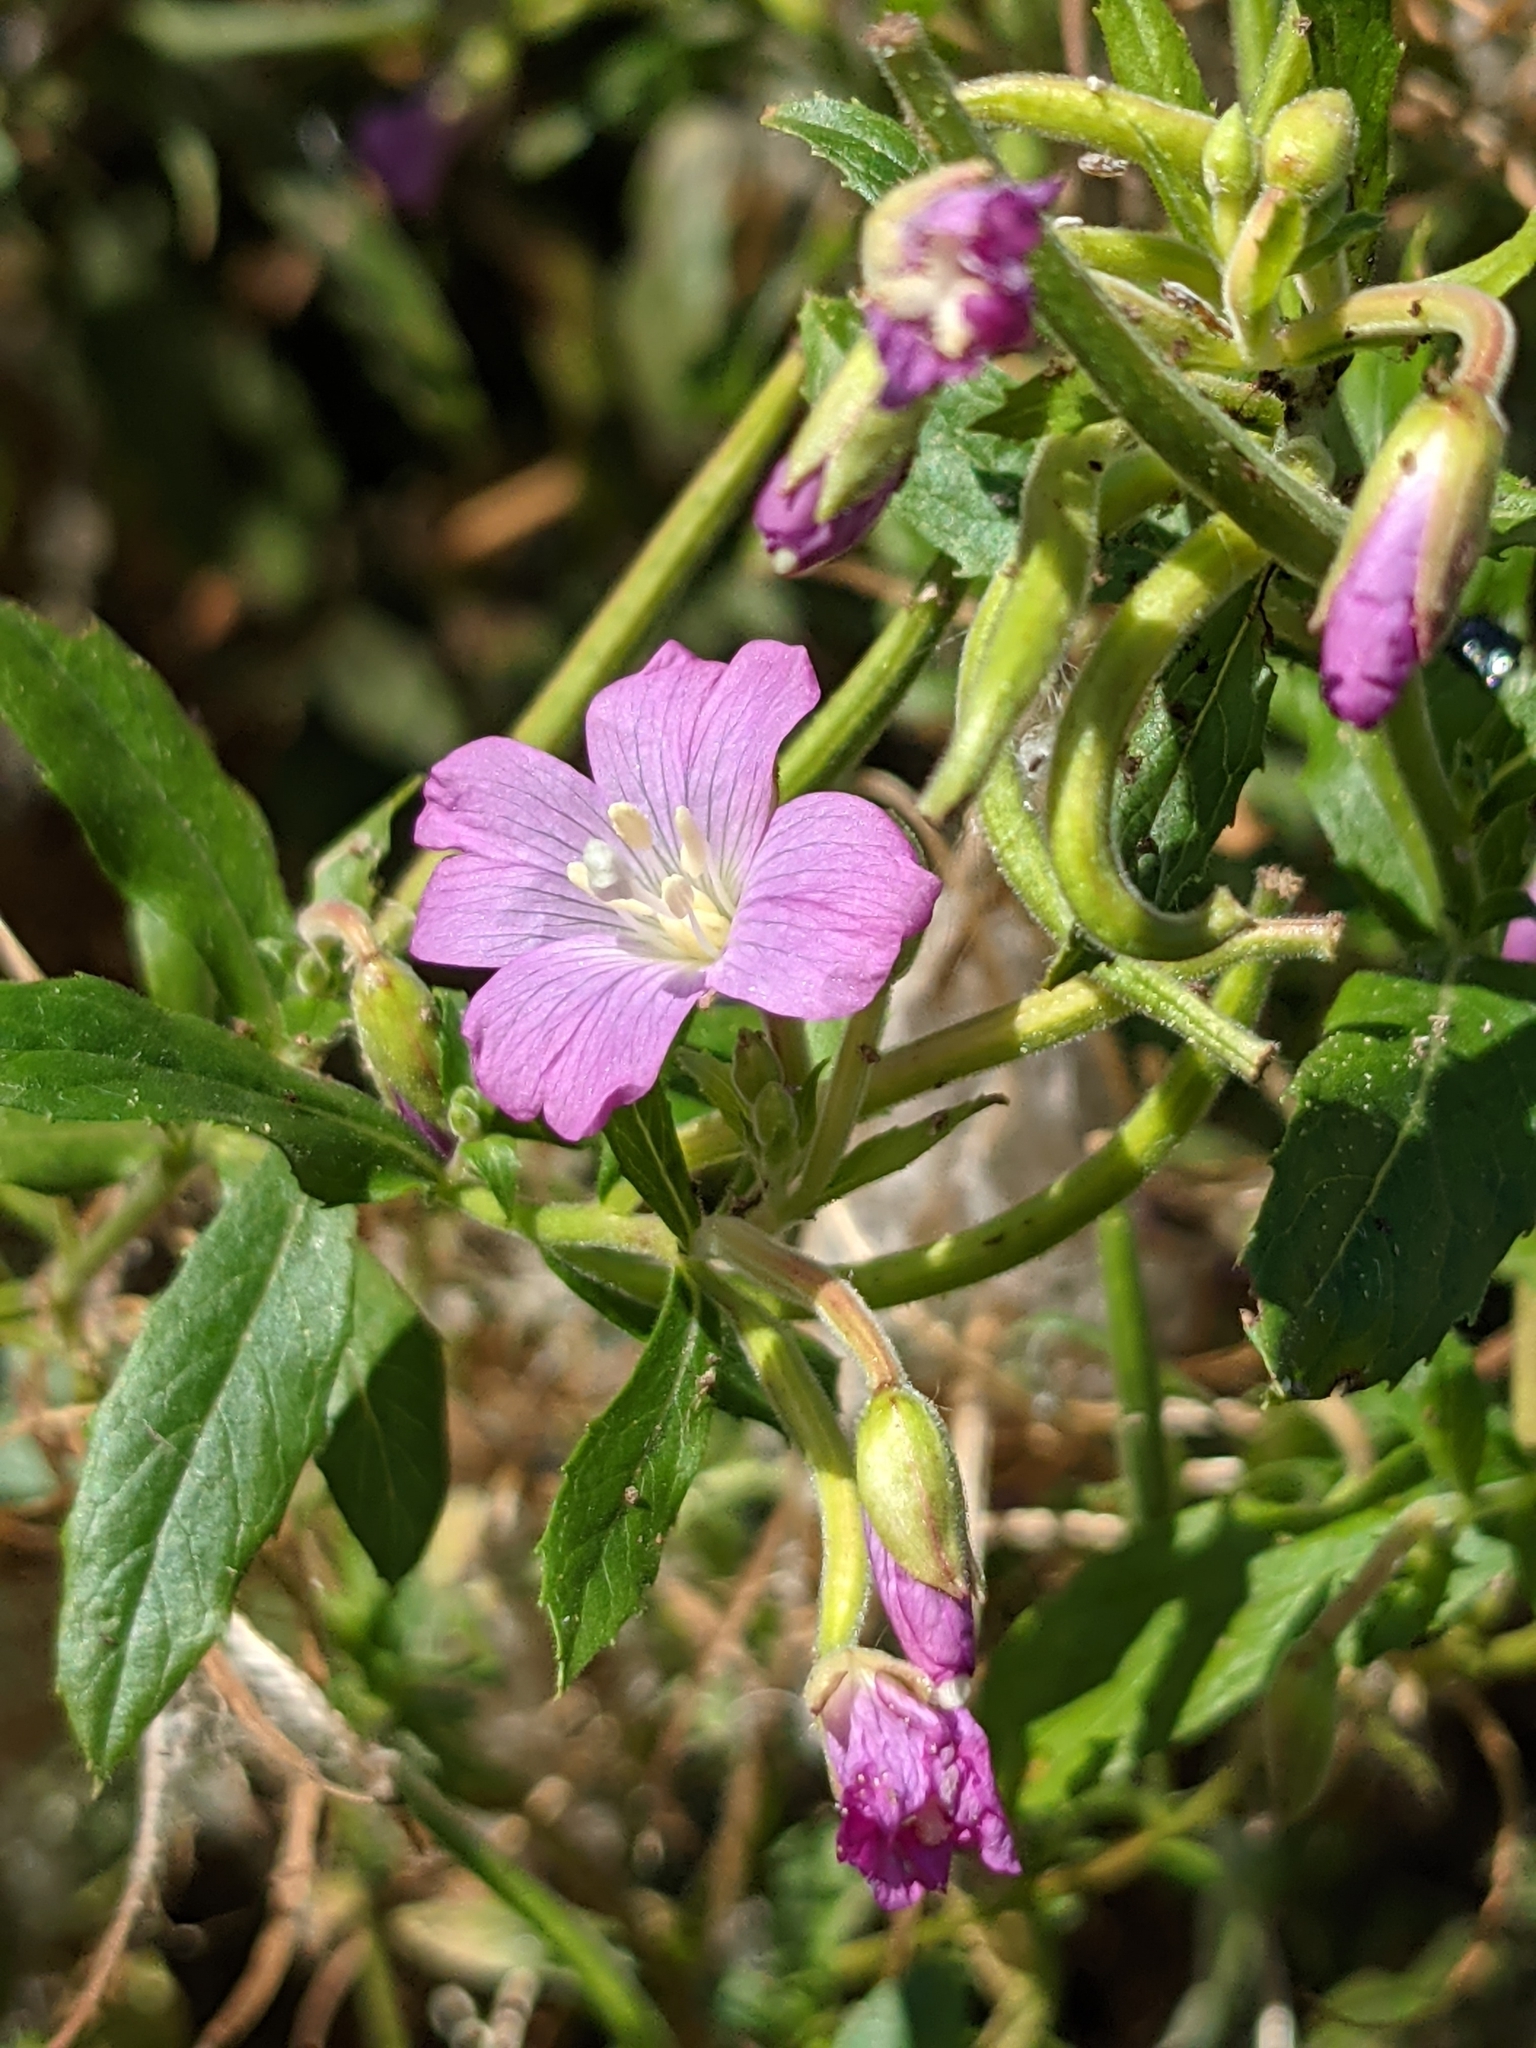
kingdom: Plantae
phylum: Tracheophyta
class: Magnoliopsida
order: Myrtales
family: Onagraceae
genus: Epilobium
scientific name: Epilobium hirsutum
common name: Great willowherb
